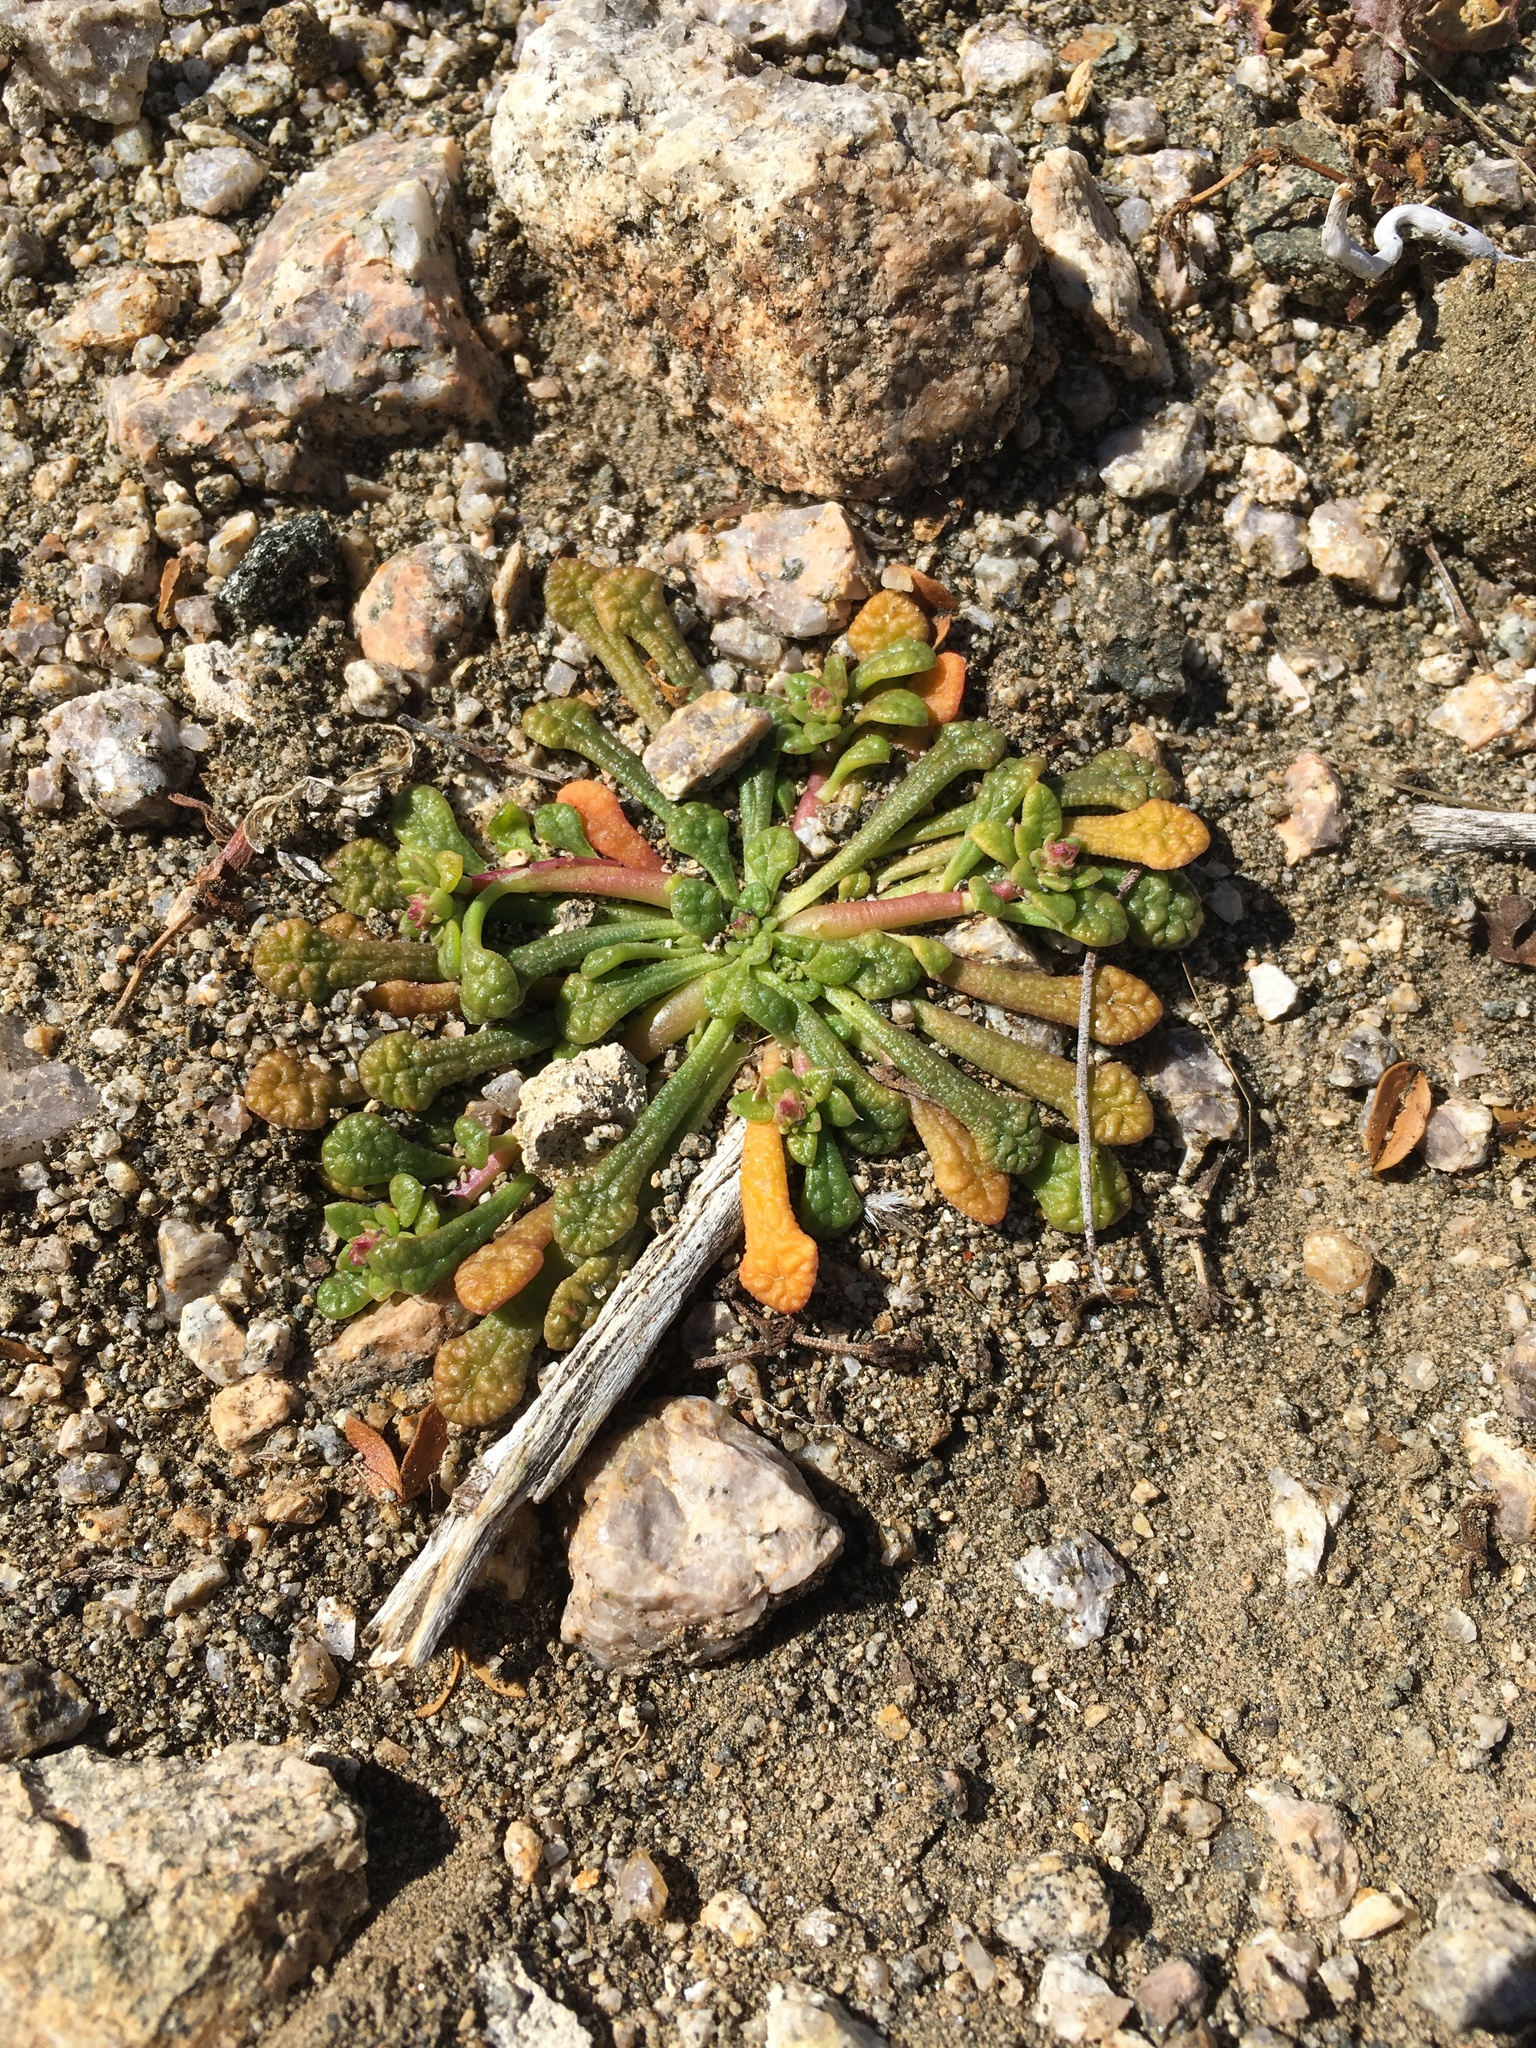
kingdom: Plantae
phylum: Tracheophyta
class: Magnoliopsida
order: Caryophyllales
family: Montiaceae
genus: Calyptridium
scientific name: Calyptridium monandrum
